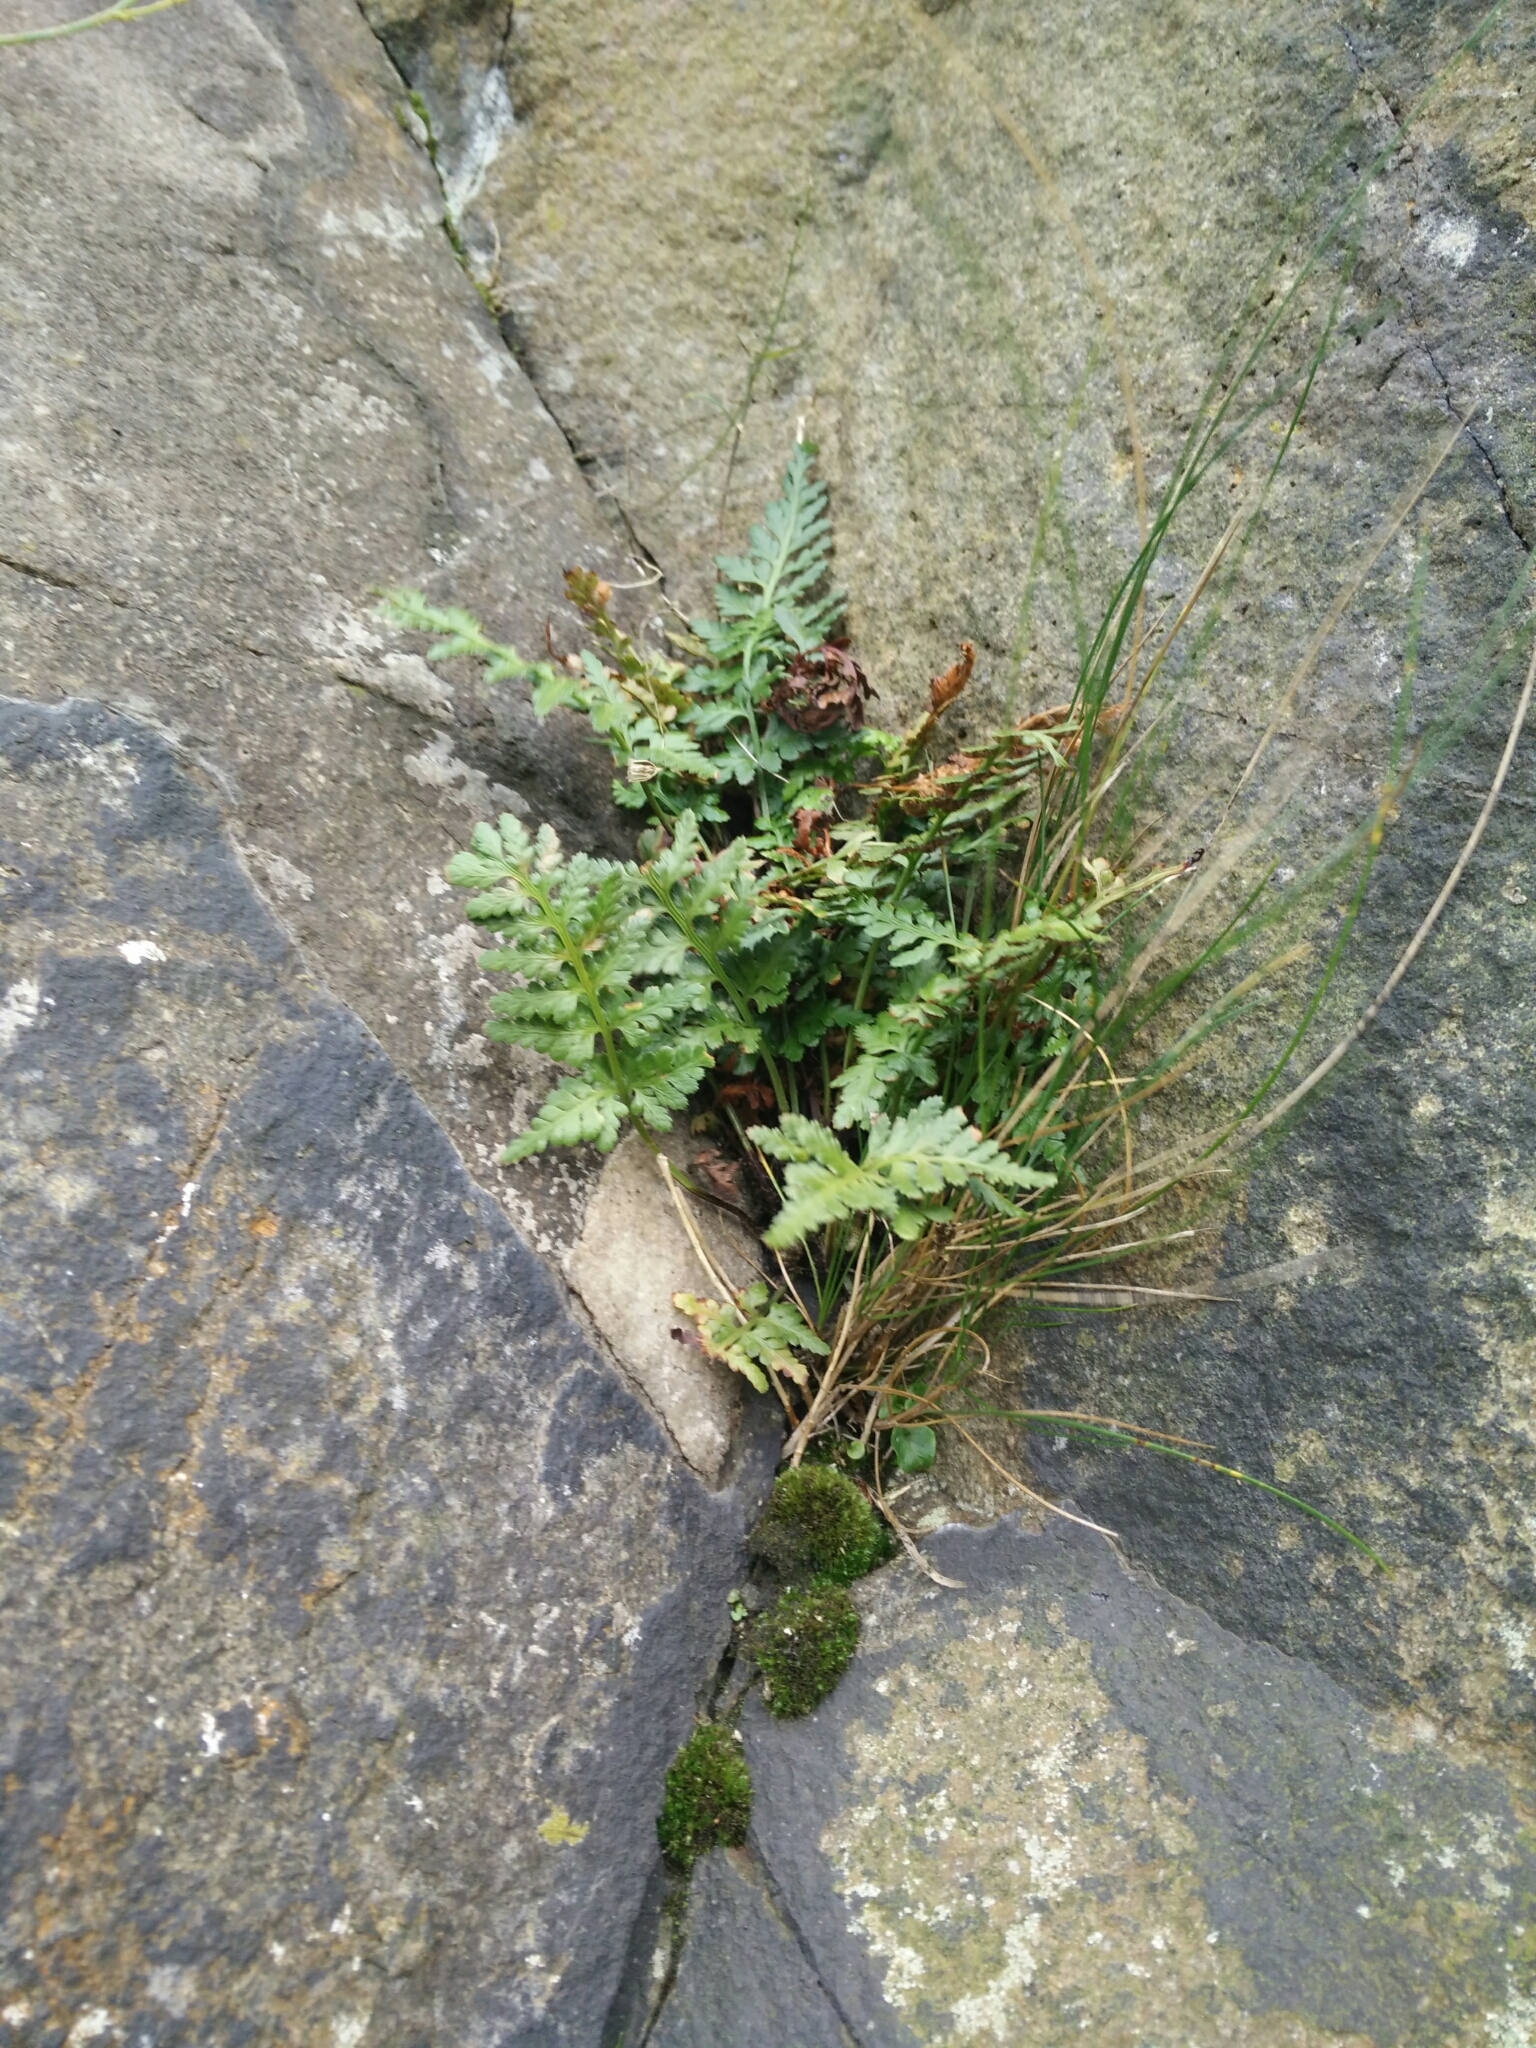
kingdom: Plantae
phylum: Tracheophyta
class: Polypodiopsida
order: Polypodiales
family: Aspleniaceae
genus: Asplenium
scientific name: Asplenium adiantum-nigrum
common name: Black spleenwort
